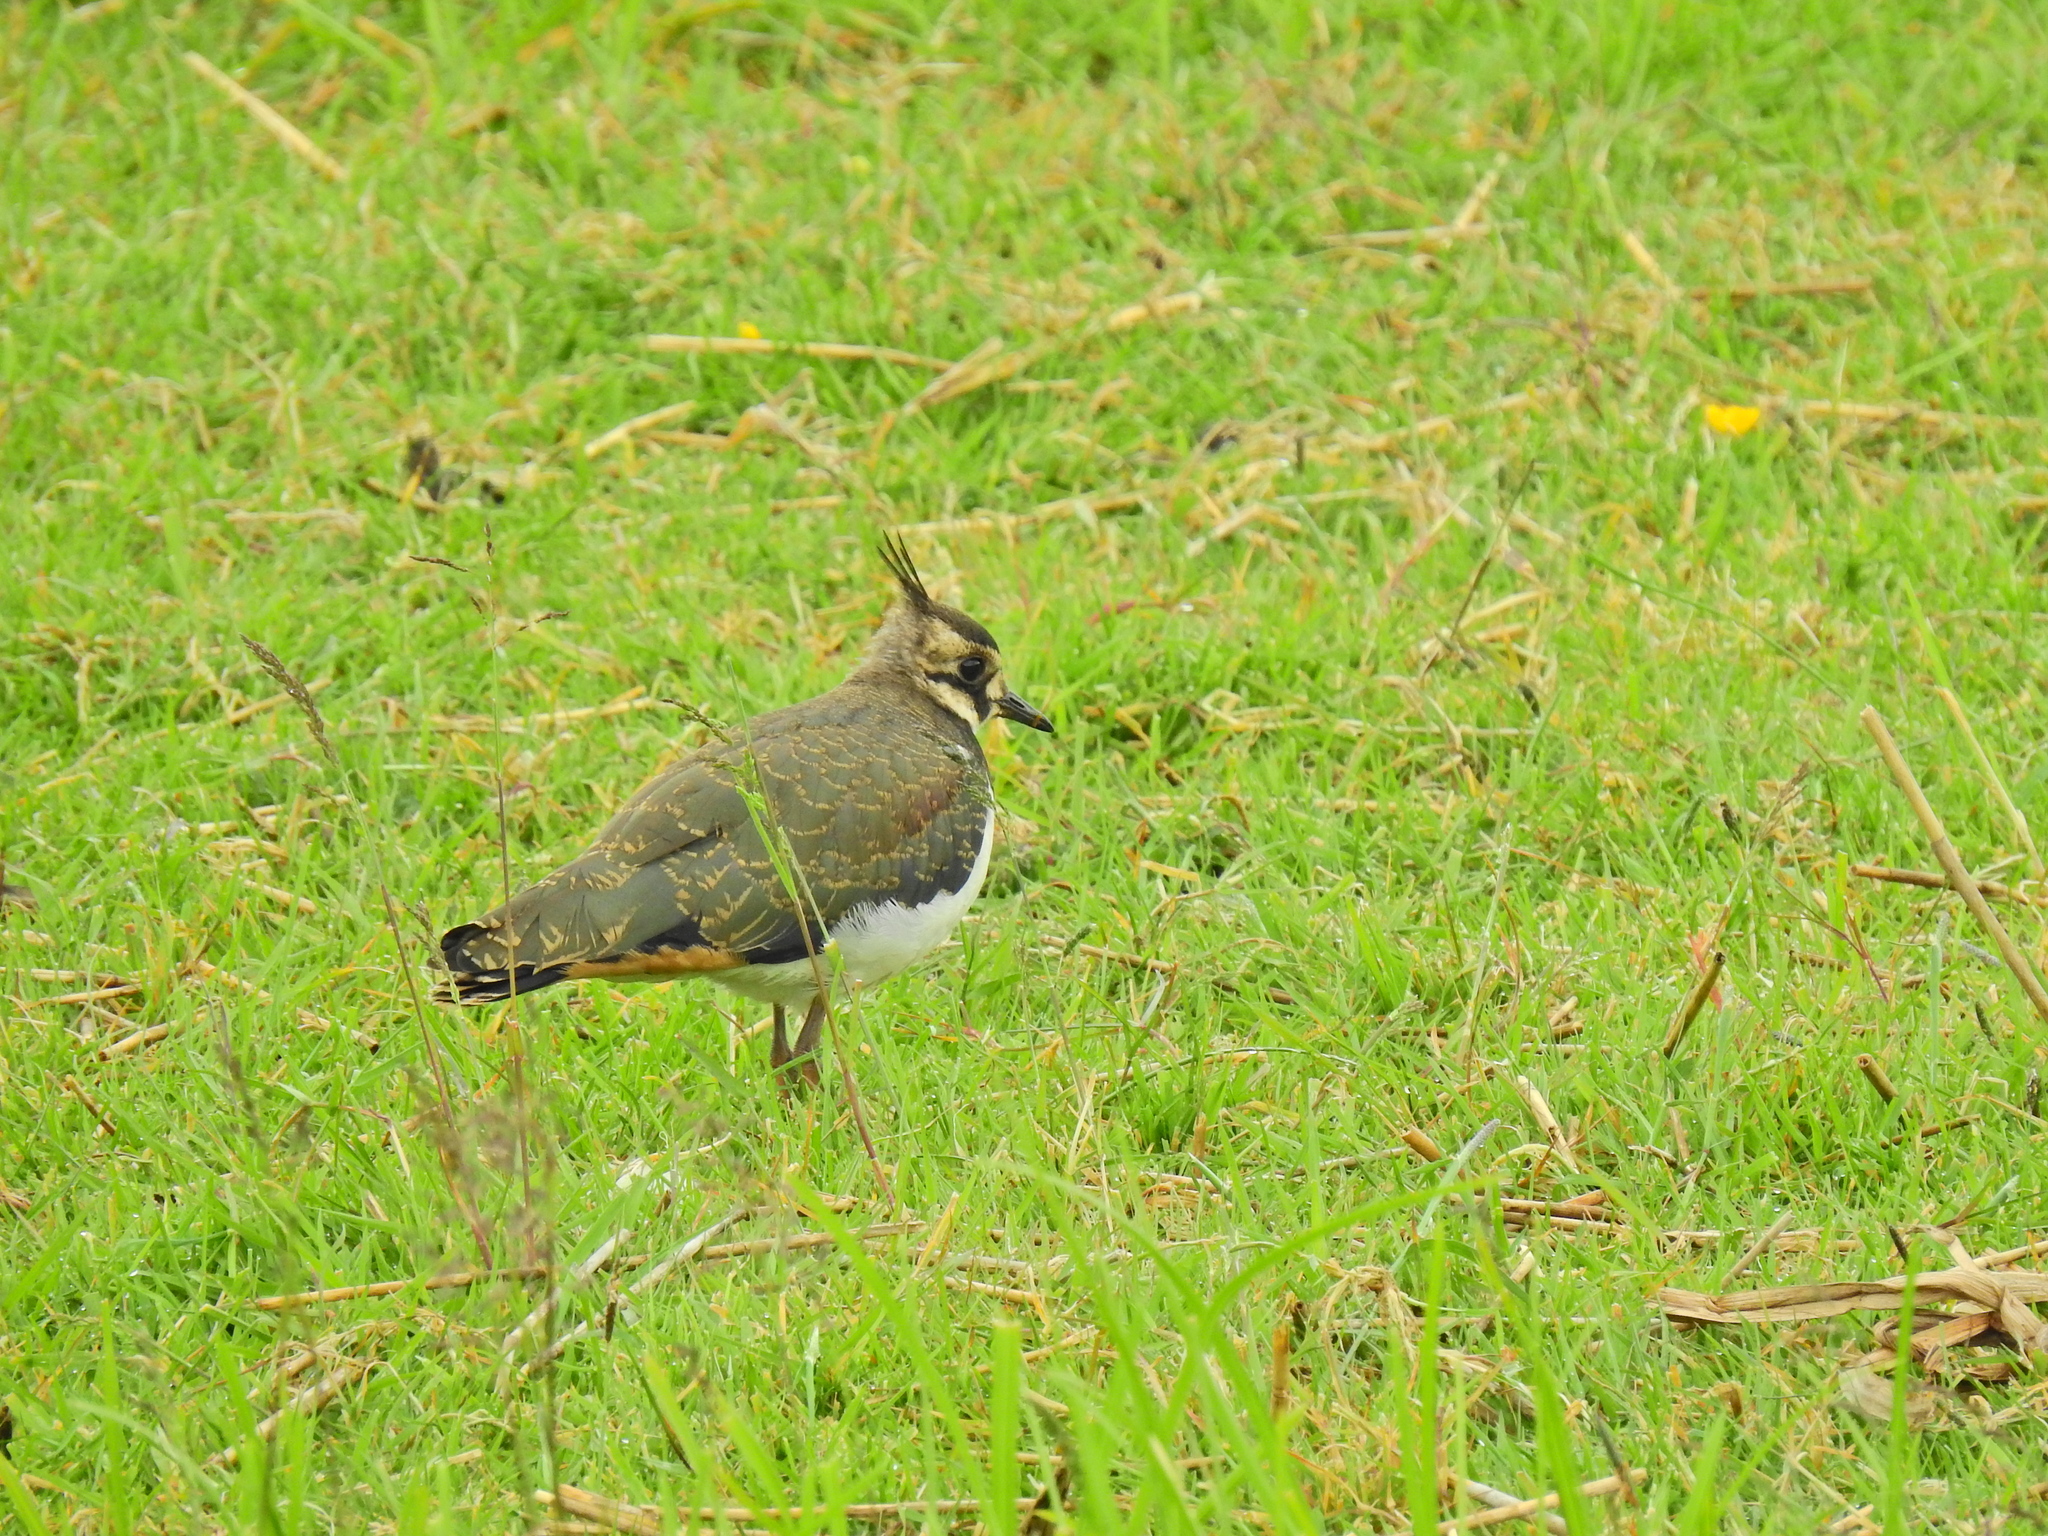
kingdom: Animalia
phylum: Chordata
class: Aves
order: Charadriiformes
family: Charadriidae
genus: Vanellus
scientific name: Vanellus vanellus
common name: Northern lapwing
